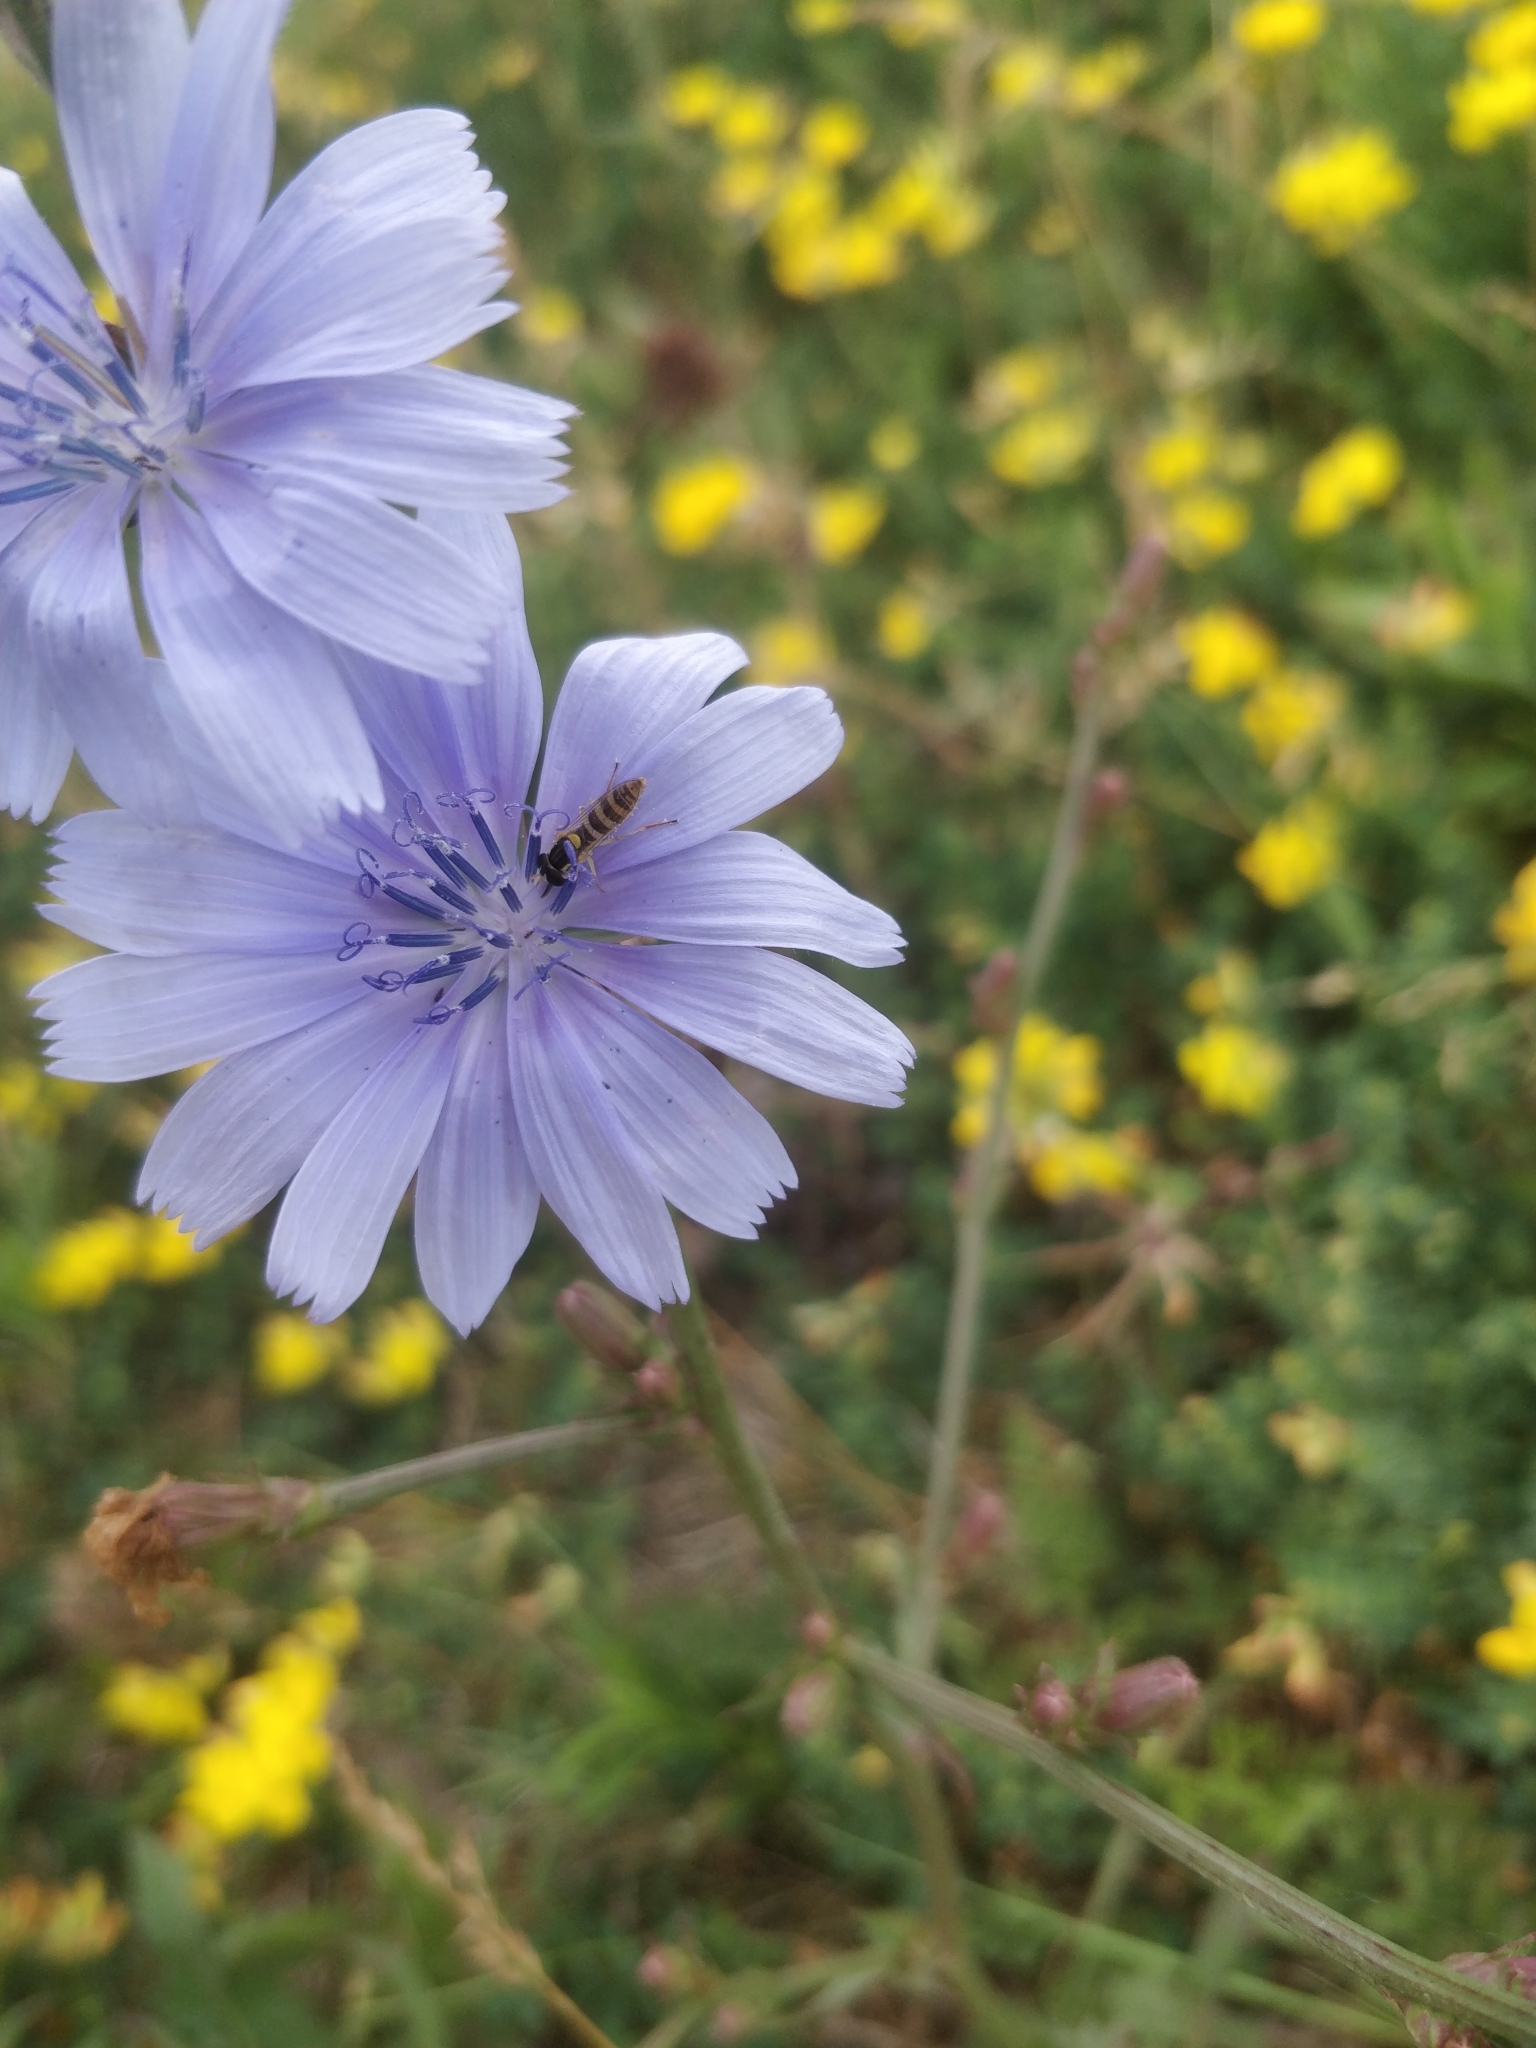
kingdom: Plantae
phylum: Tracheophyta
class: Magnoliopsida
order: Asterales
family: Asteraceae
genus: Cichorium
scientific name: Cichorium intybus
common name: Chicory
